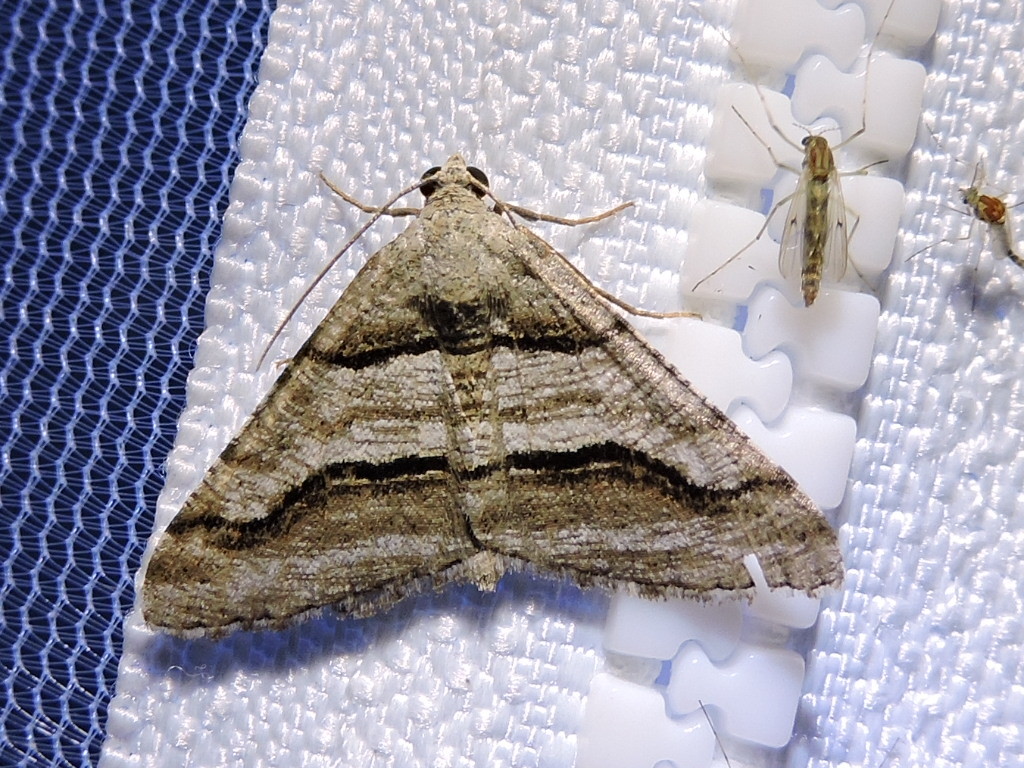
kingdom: Animalia
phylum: Arthropoda
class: Insecta
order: Lepidoptera
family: Geometridae
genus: Digrammia
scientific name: Digrammia continuata
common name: Curve-lined angle
